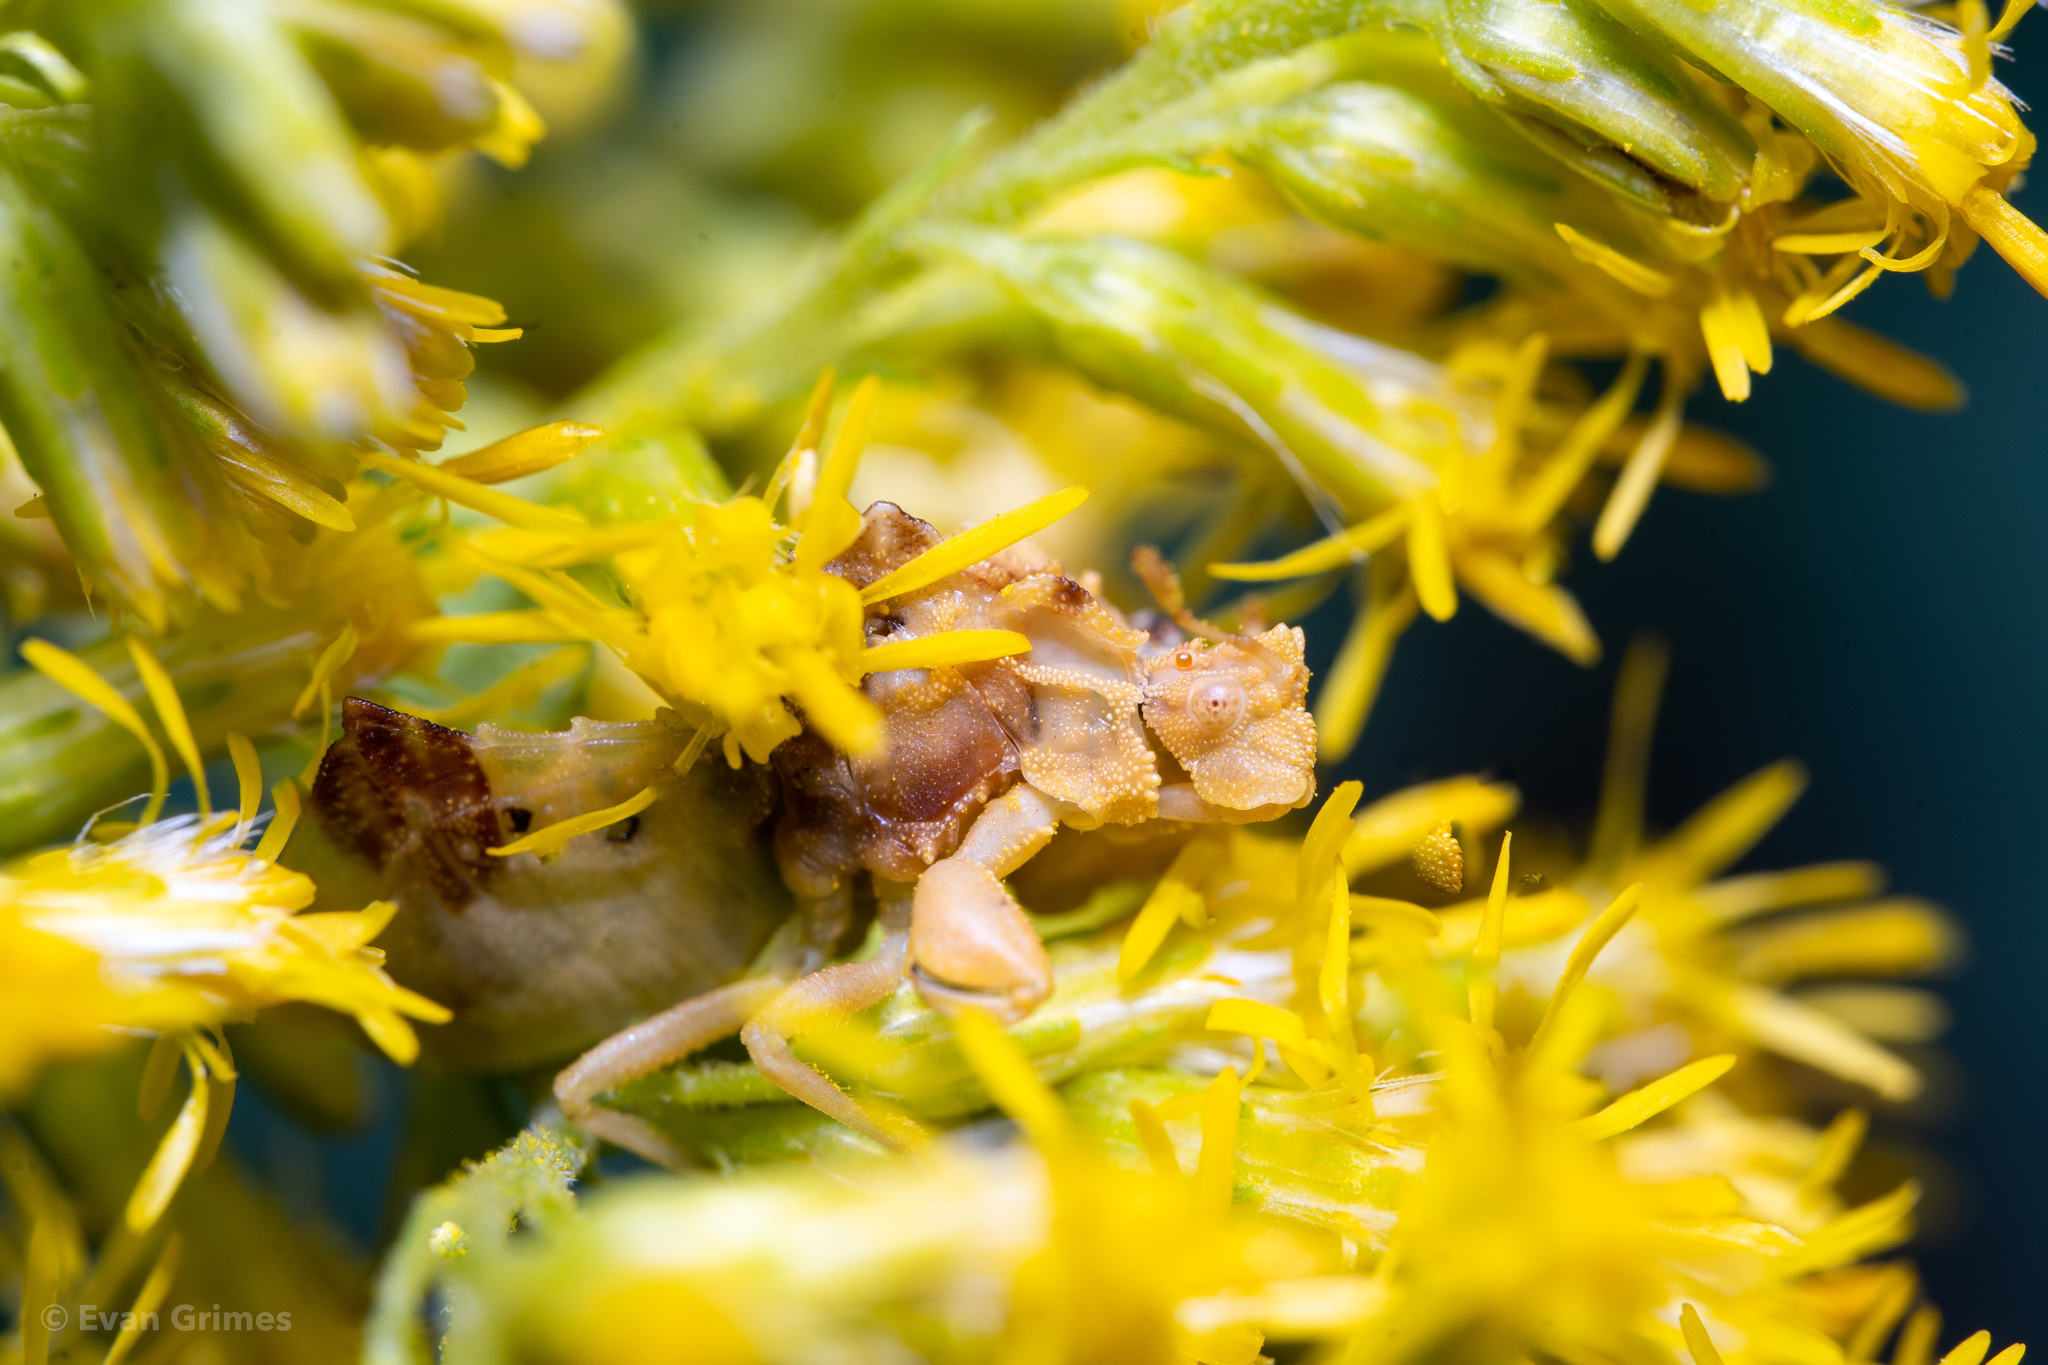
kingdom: Animalia
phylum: Arthropoda
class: Insecta
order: Hemiptera
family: Reduviidae
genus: Phymata
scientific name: Phymata fasciata
